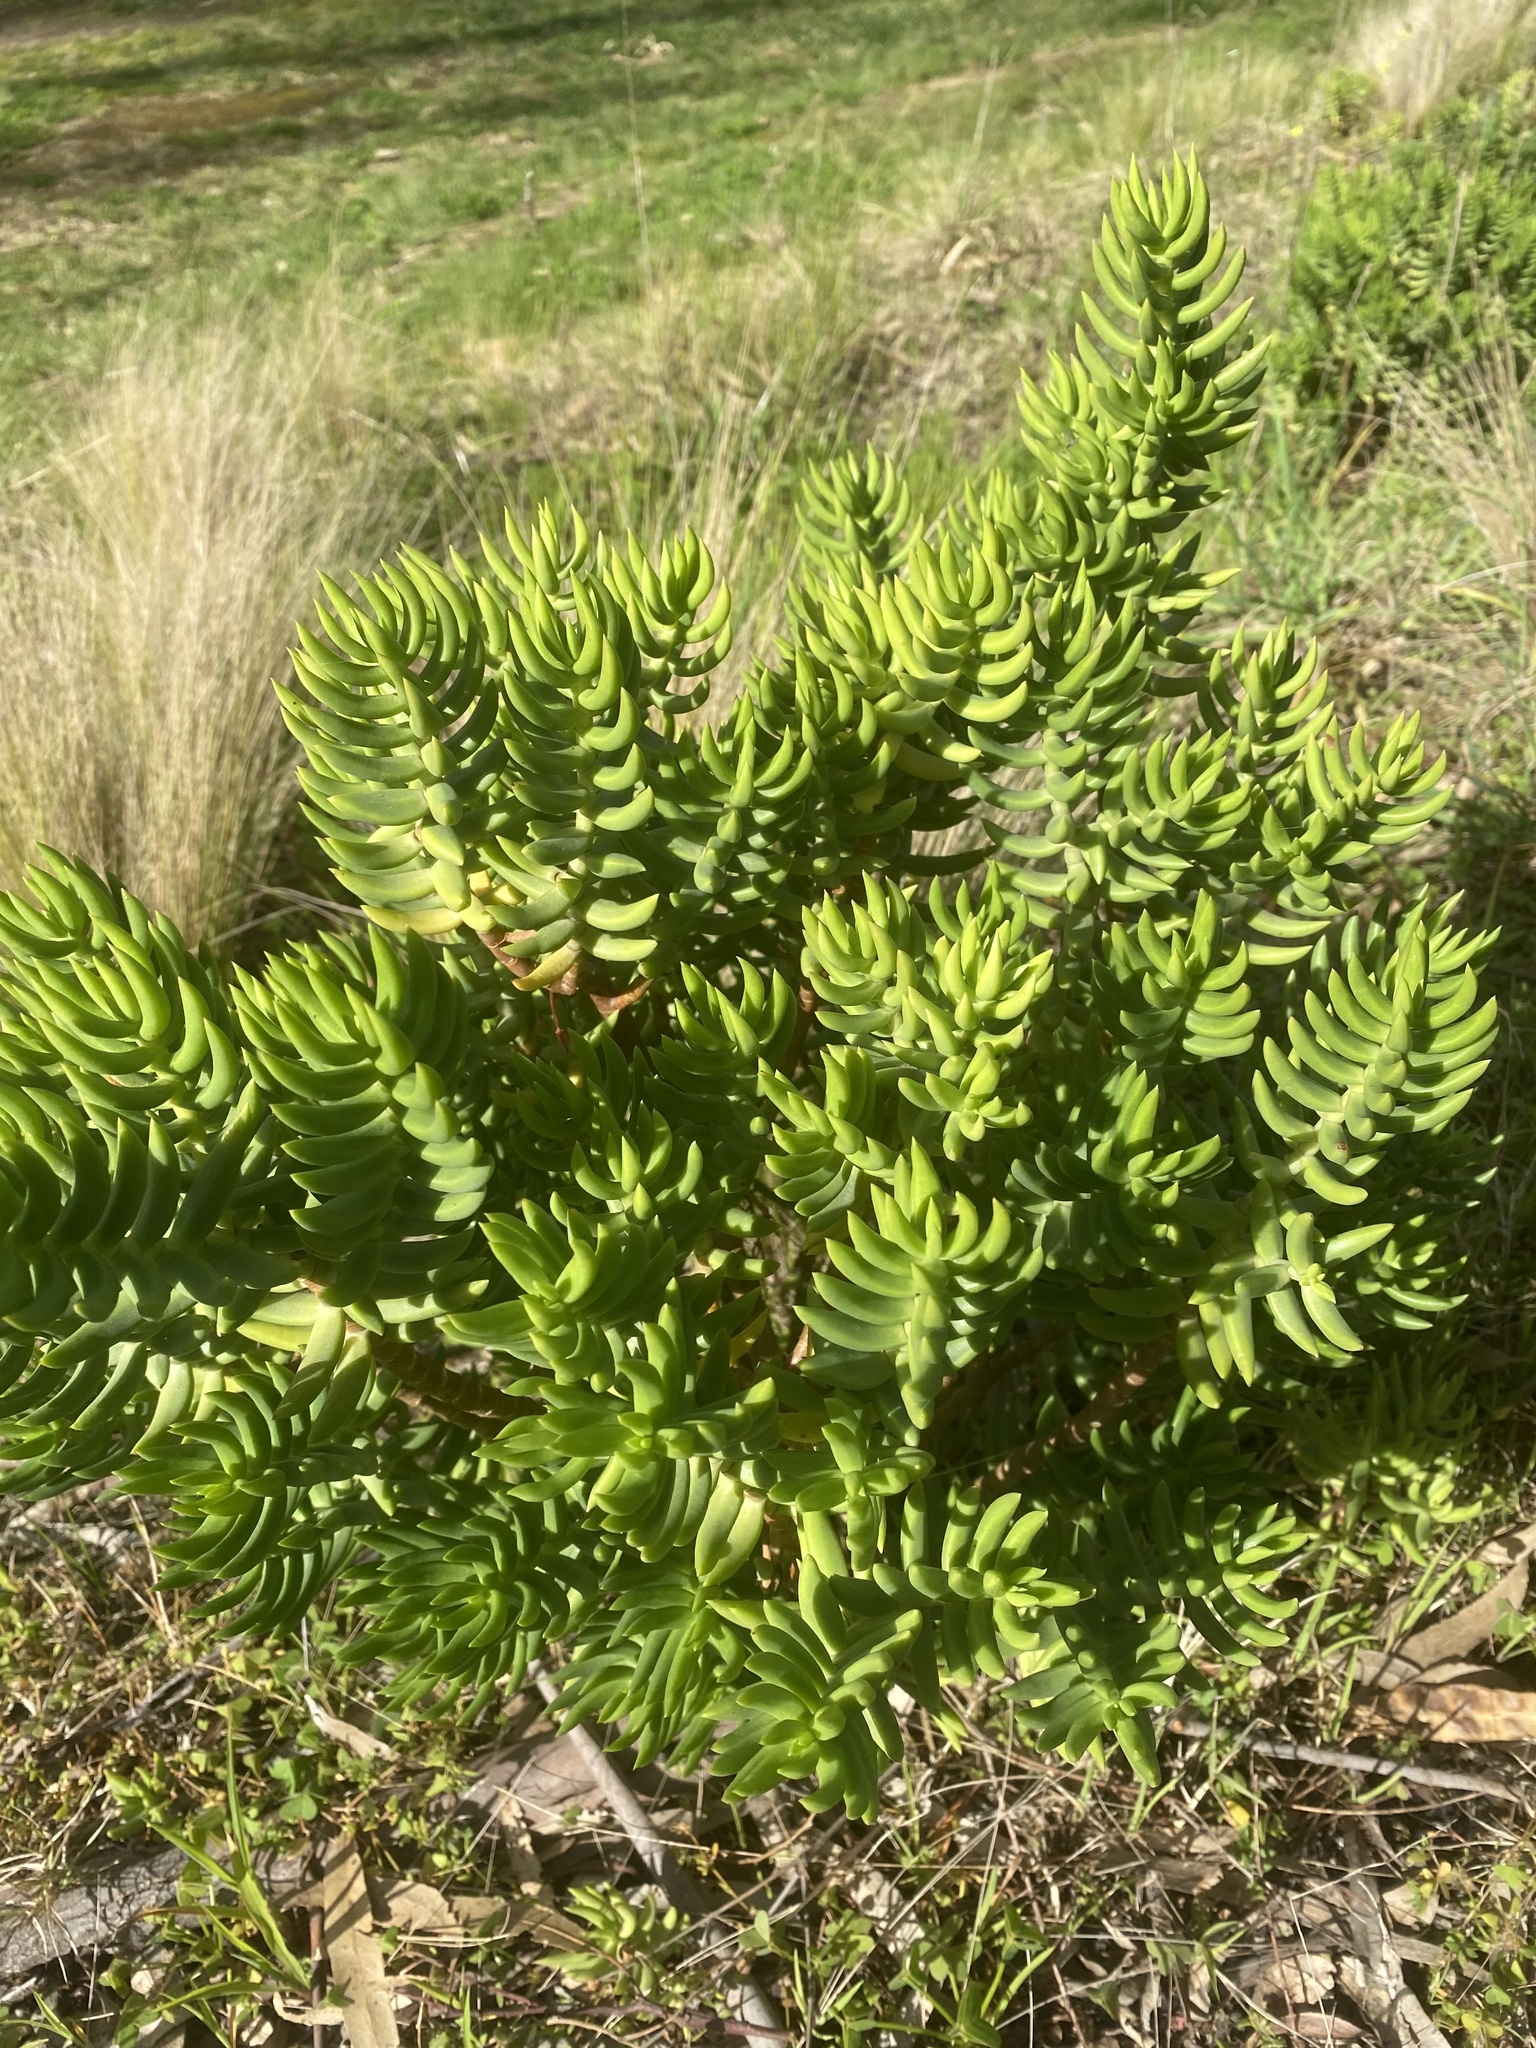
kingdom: Plantae
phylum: Tracheophyta
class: Magnoliopsida
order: Saxifragales
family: Crassulaceae
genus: Crassula
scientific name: Crassula tetragona
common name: Pygmyweed
